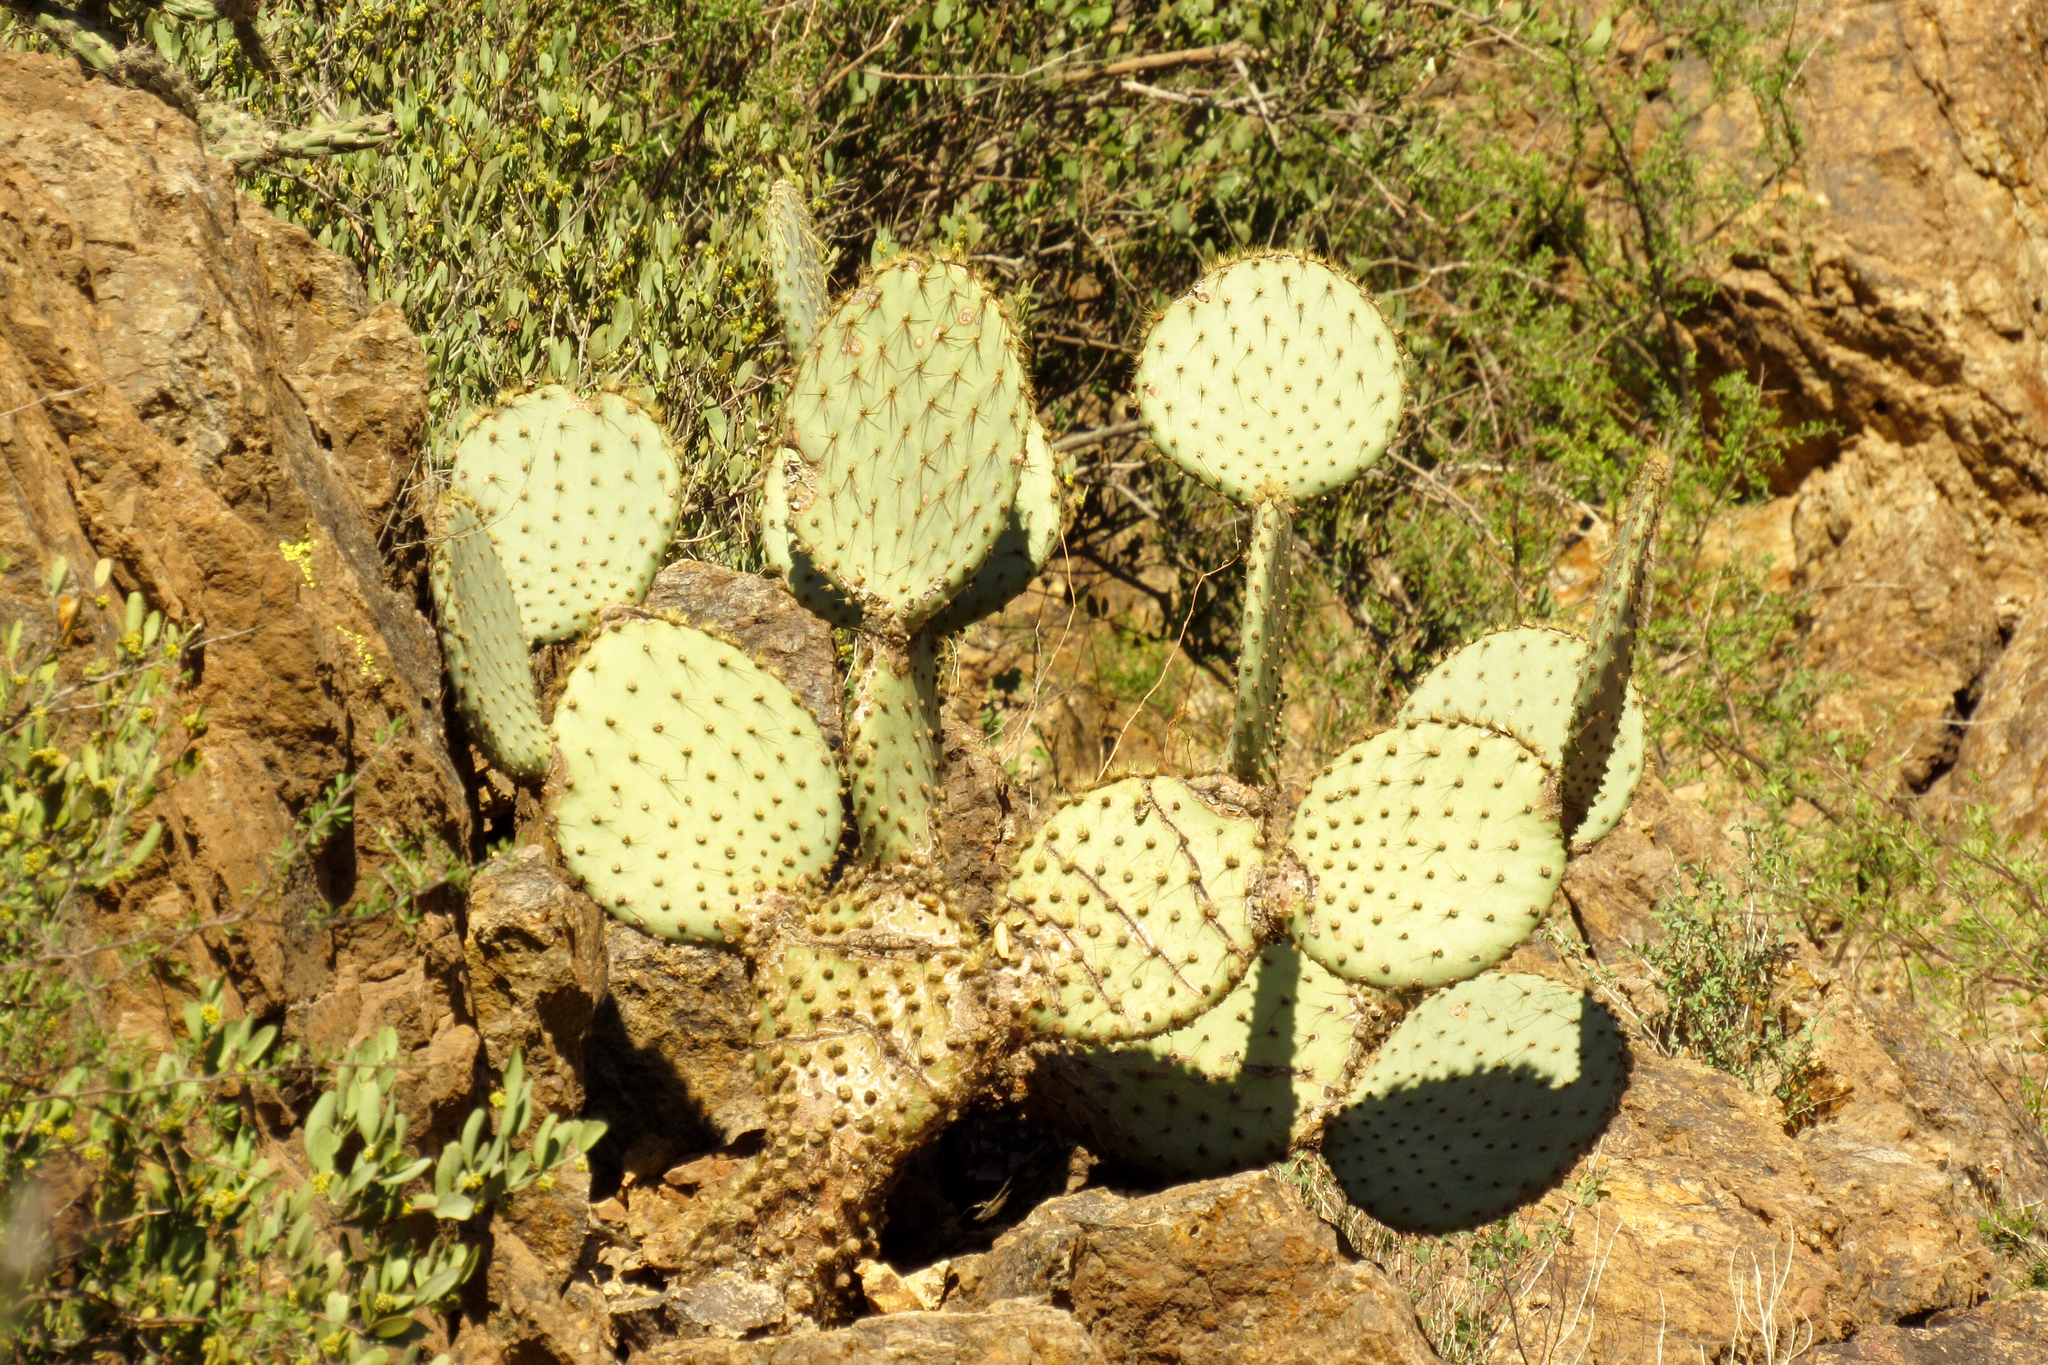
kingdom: Plantae
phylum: Tracheophyta
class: Magnoliopsida
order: Caryophyllales
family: Cactaceae
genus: Opuntia
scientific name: Opuntia chlorotica
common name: Dollar-joint prickly-pear
